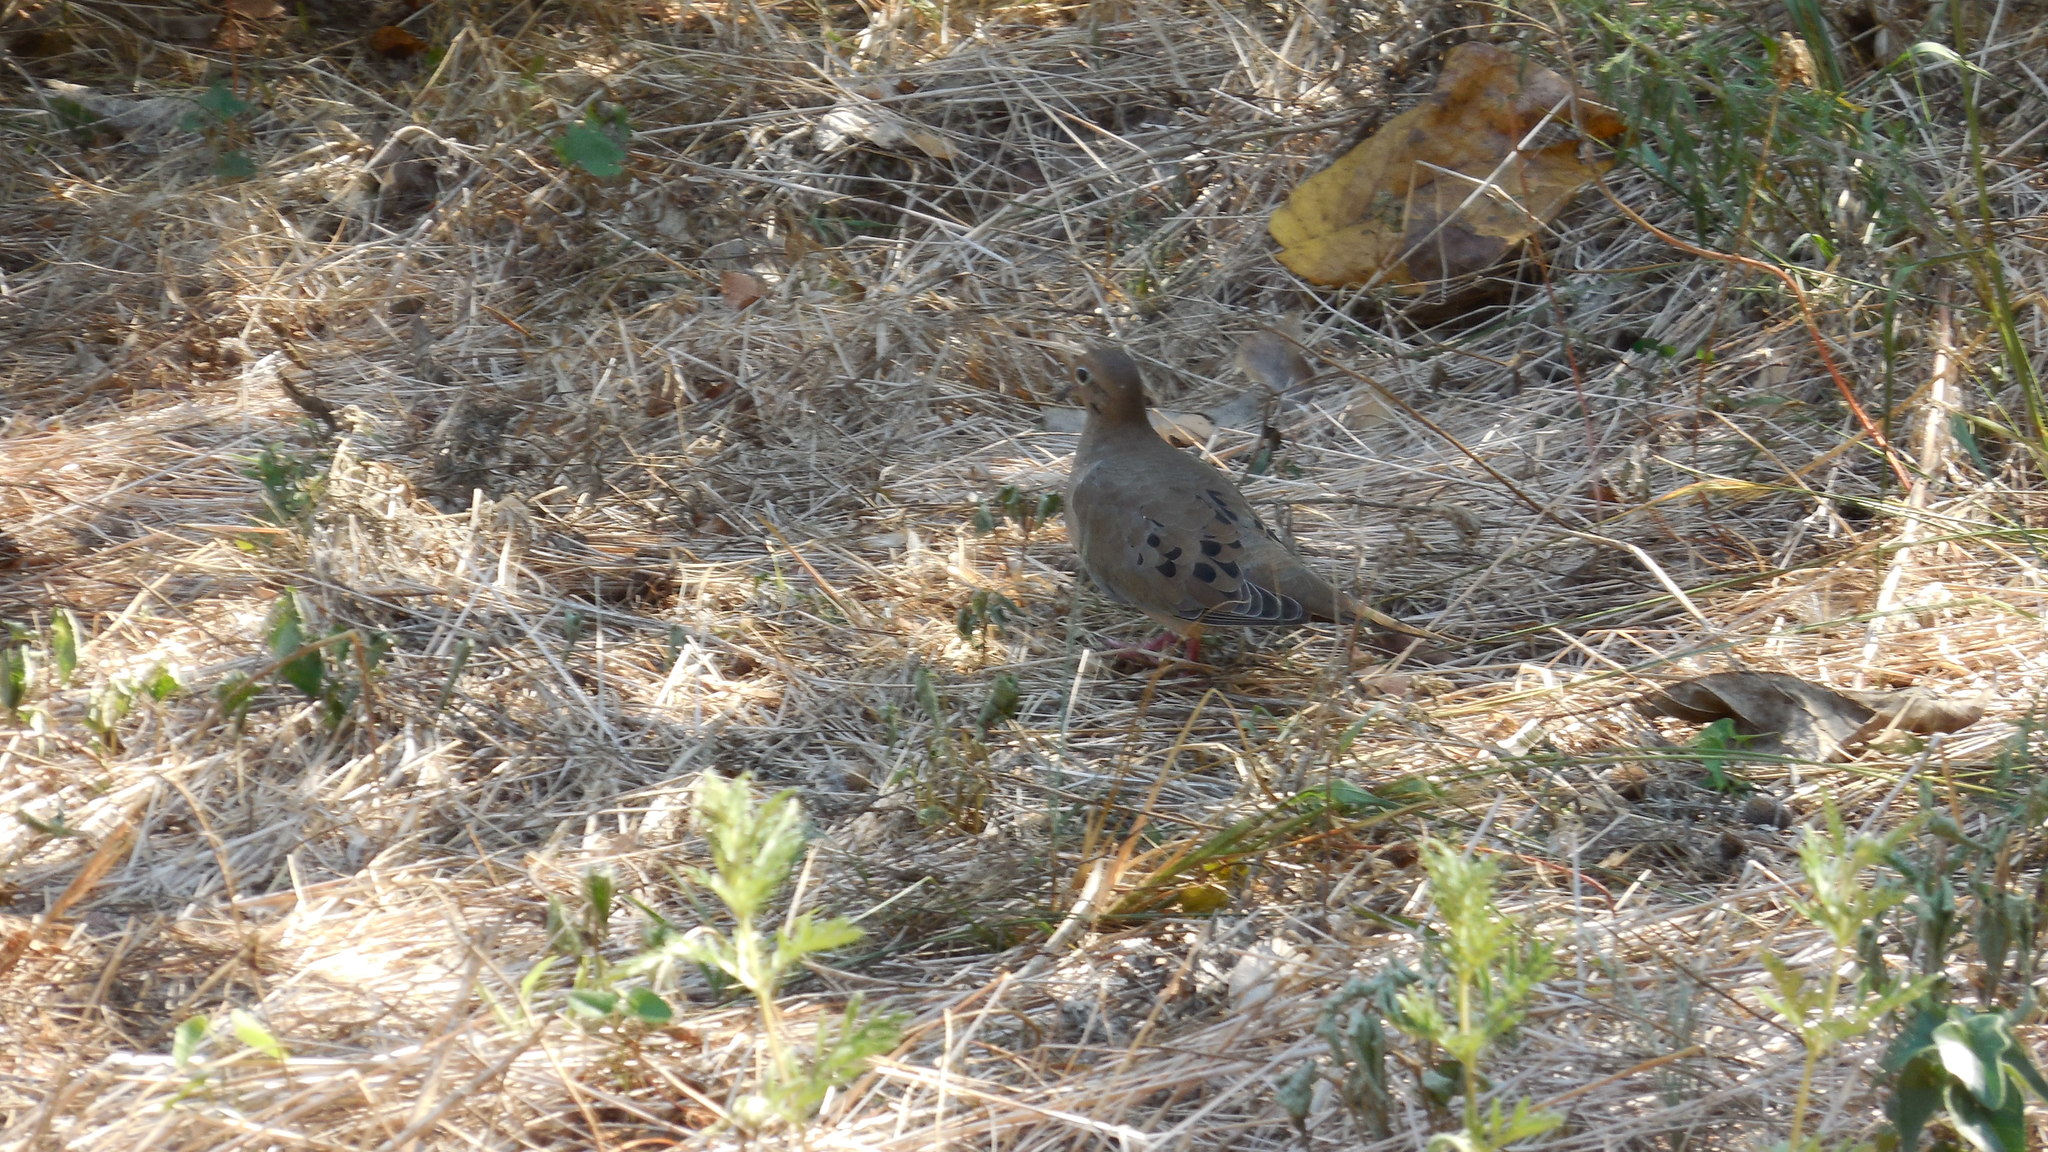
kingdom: Animalia
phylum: Chordata
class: Aves
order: Columbiformes
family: Columbidae
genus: Zenaida
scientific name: Zenaida macroura
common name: Mourning dove
